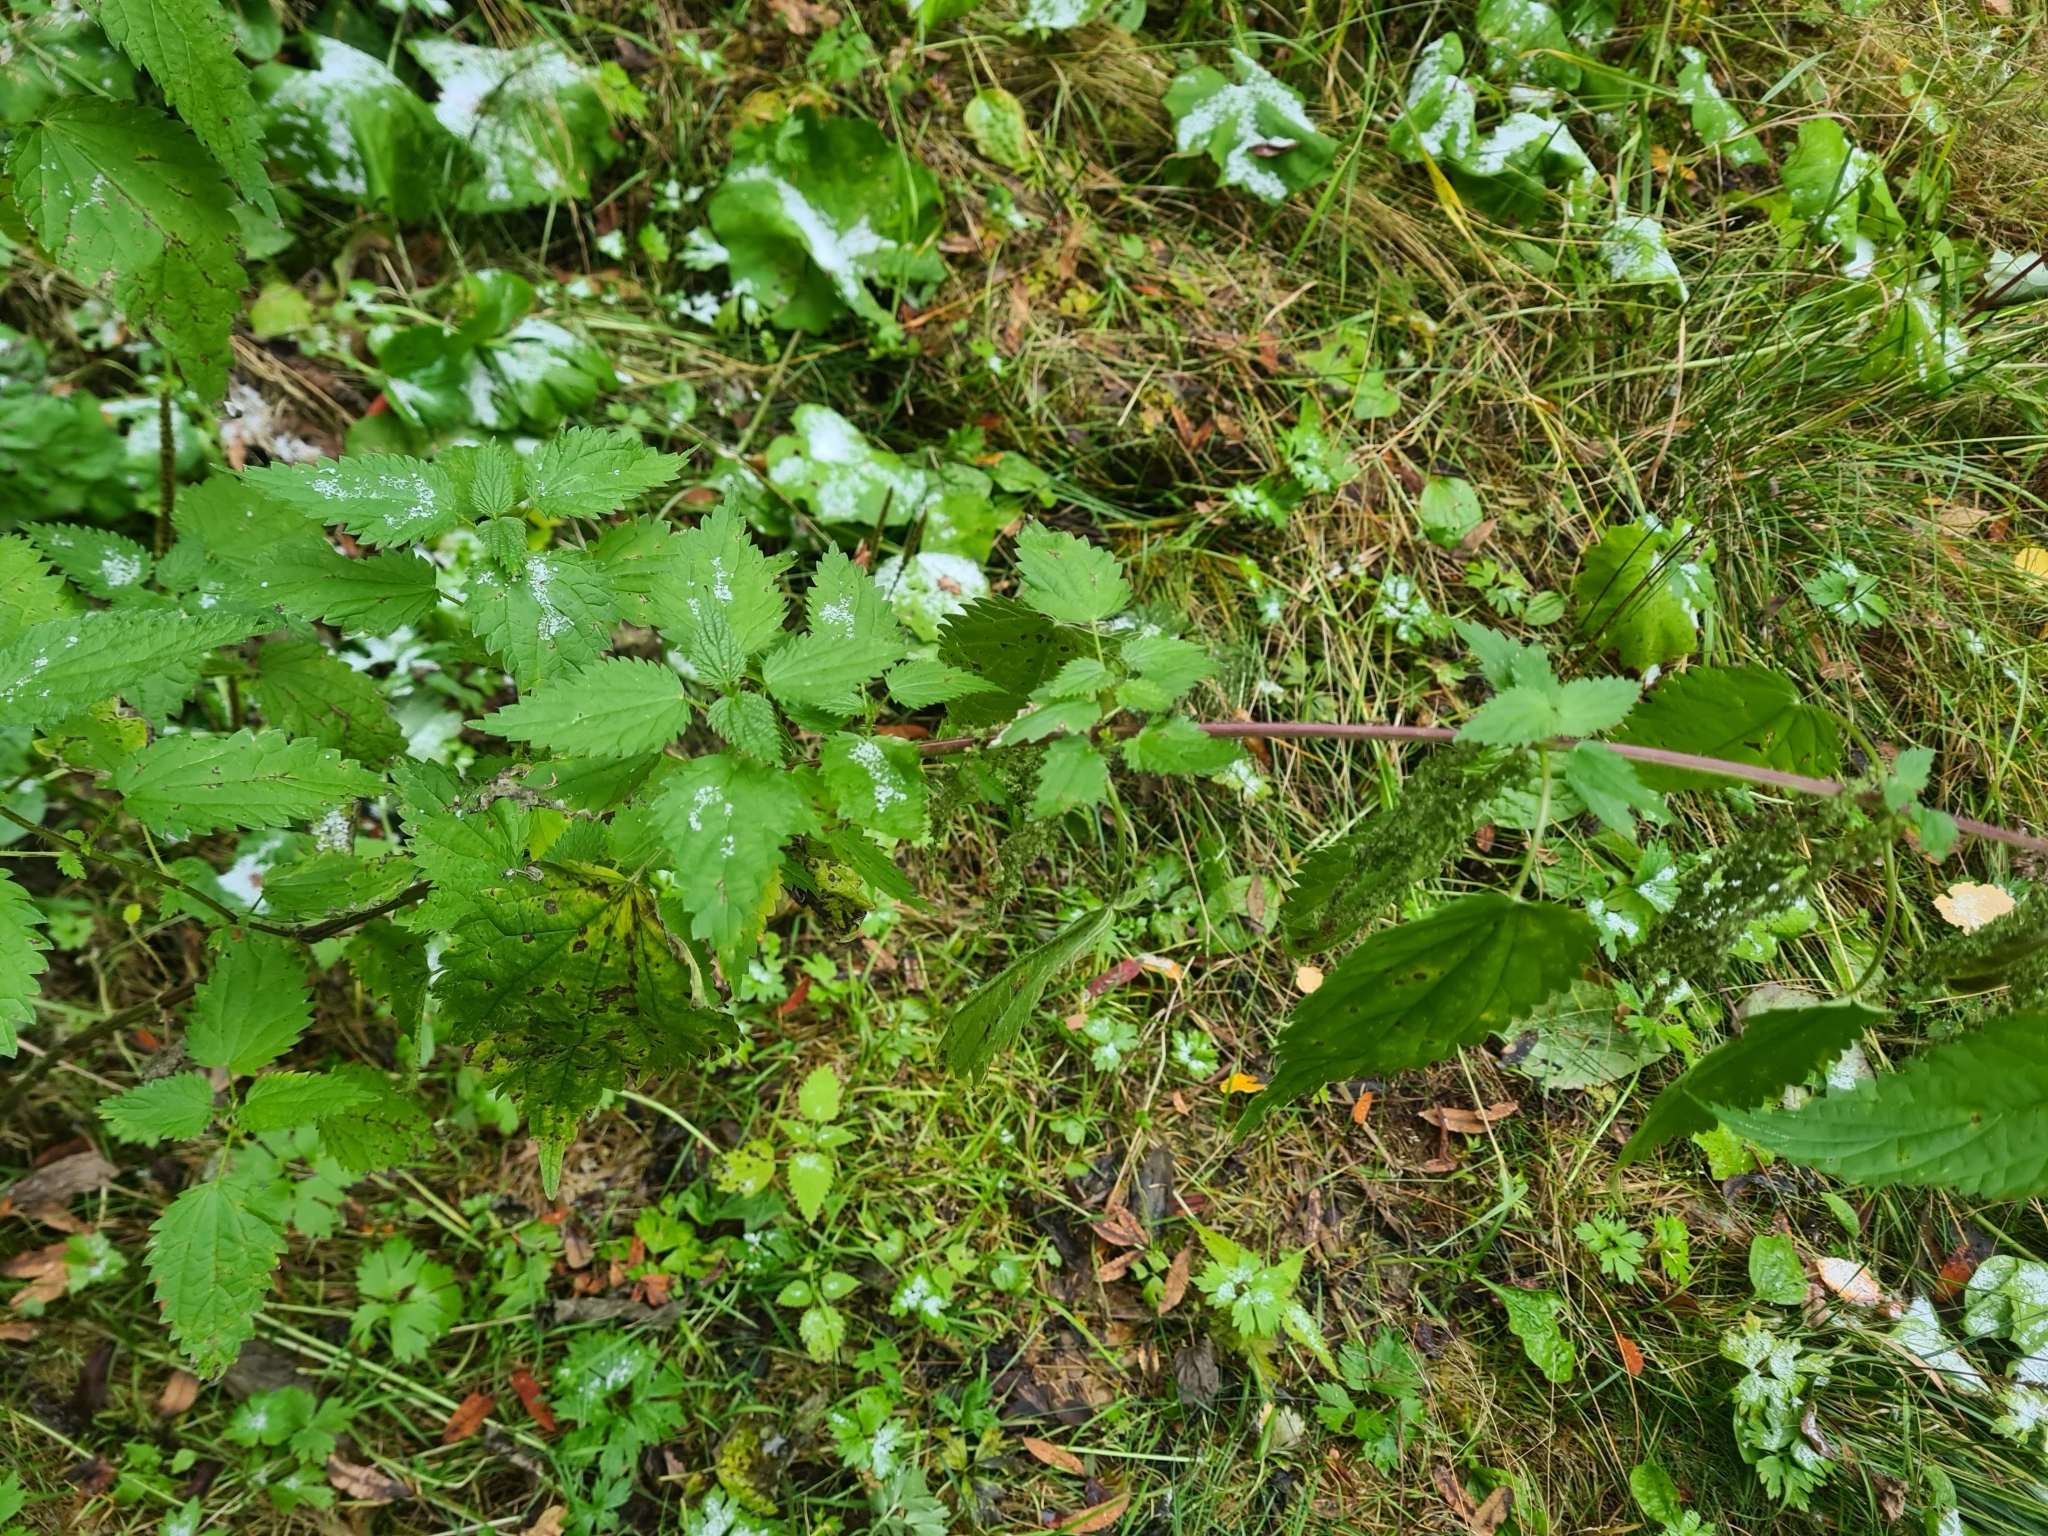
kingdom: Plantae
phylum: Tracheophyta
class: Magnoliopsida
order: Rosales
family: Urticaceae
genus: Urtica
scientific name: Urtica dioica
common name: Common nettle
